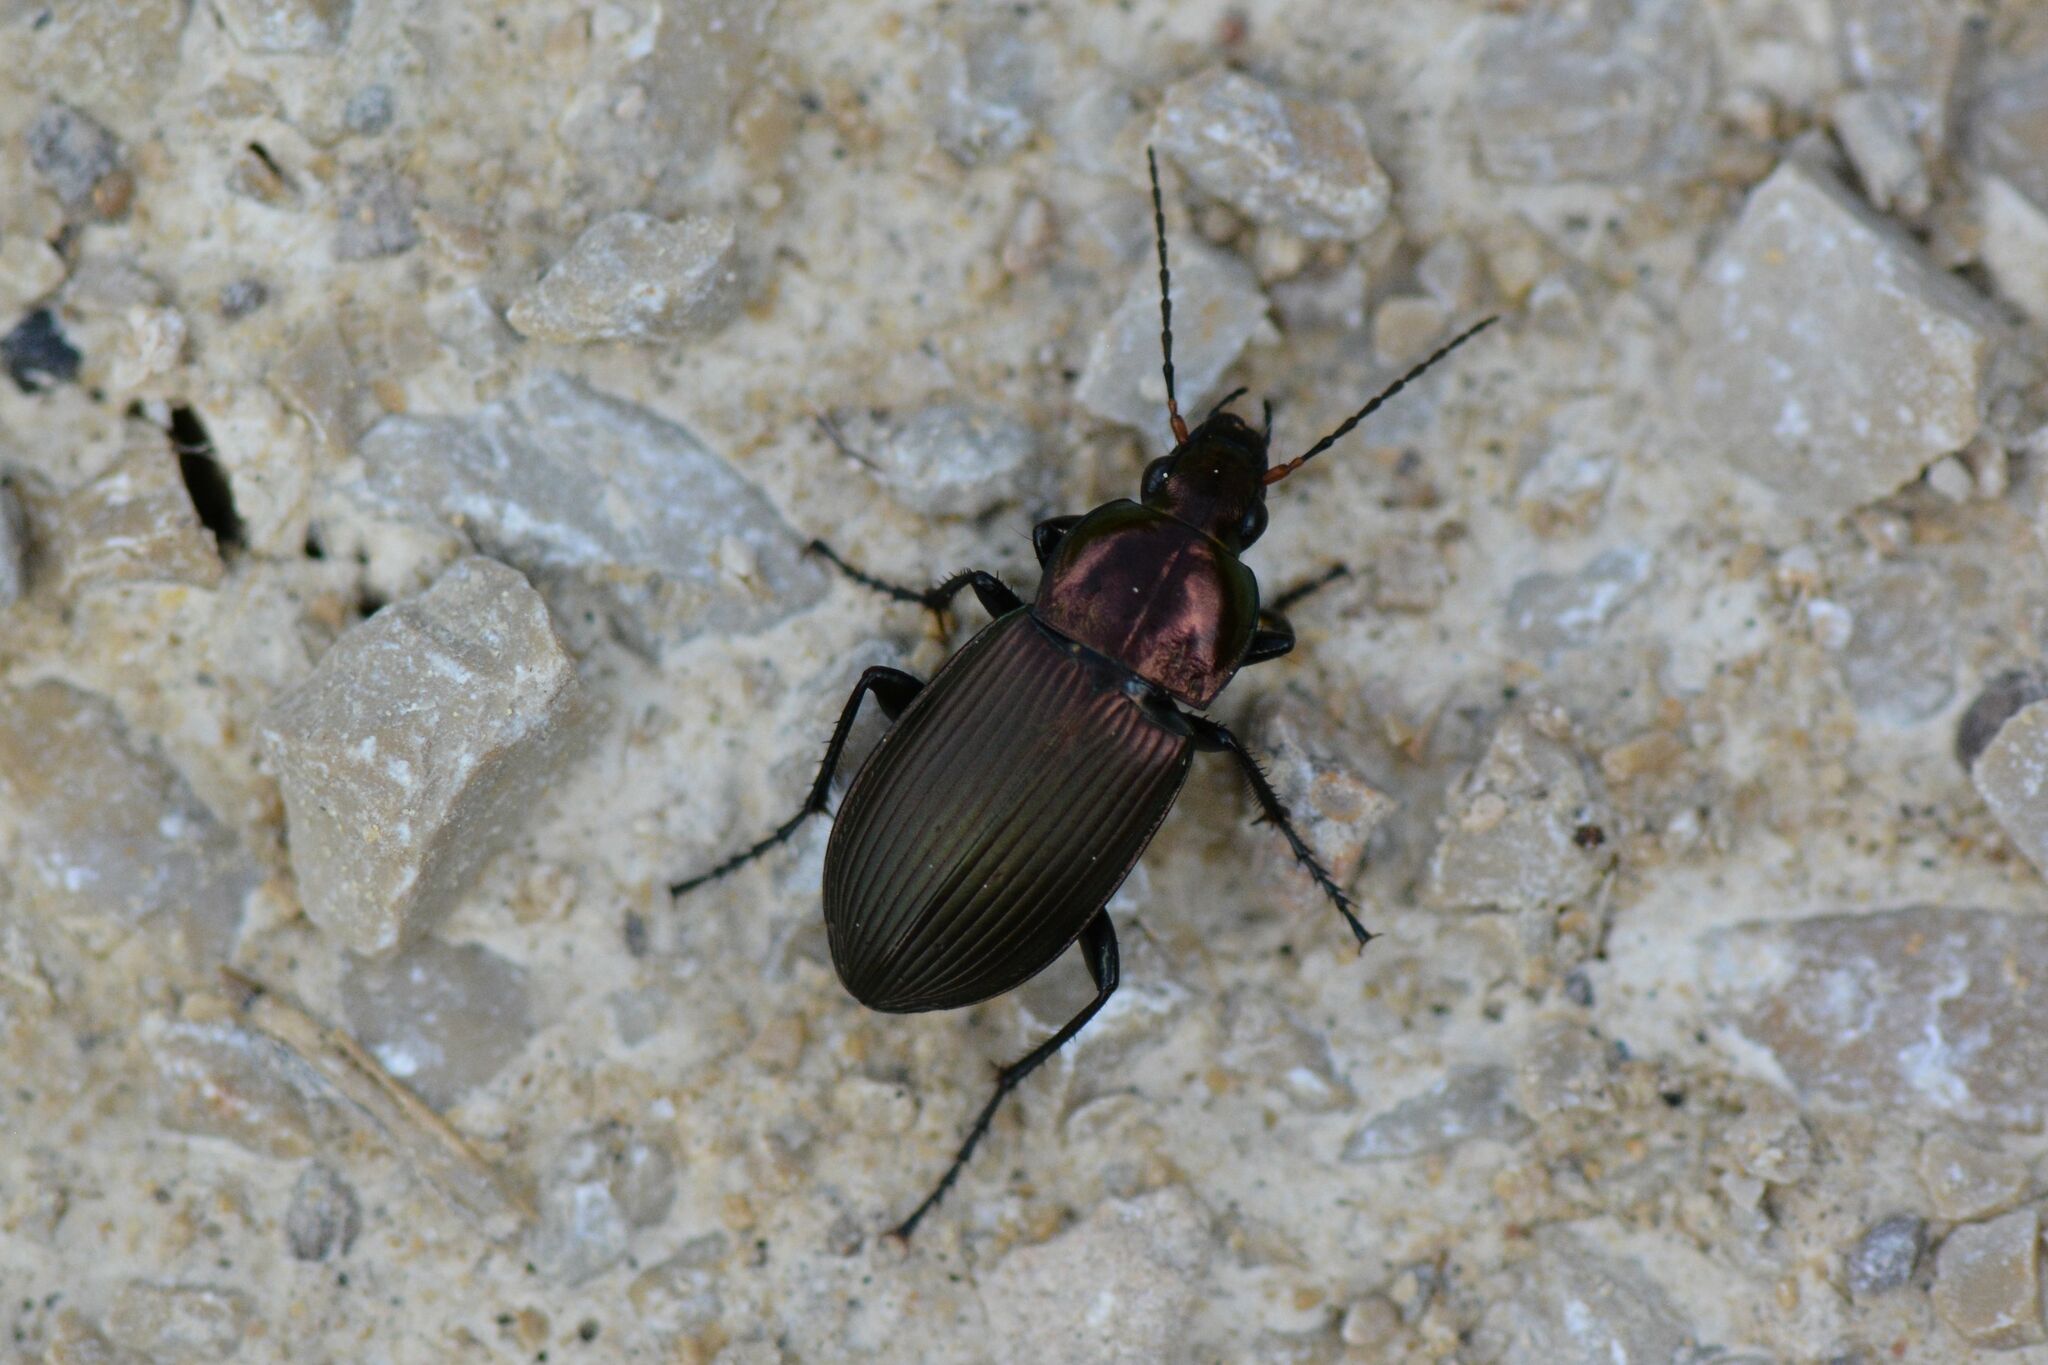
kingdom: Animalia
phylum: Arthropoda
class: Insecta
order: Coleoptera
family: Carabidae
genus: Poecilus
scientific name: Poecilus cupreus
